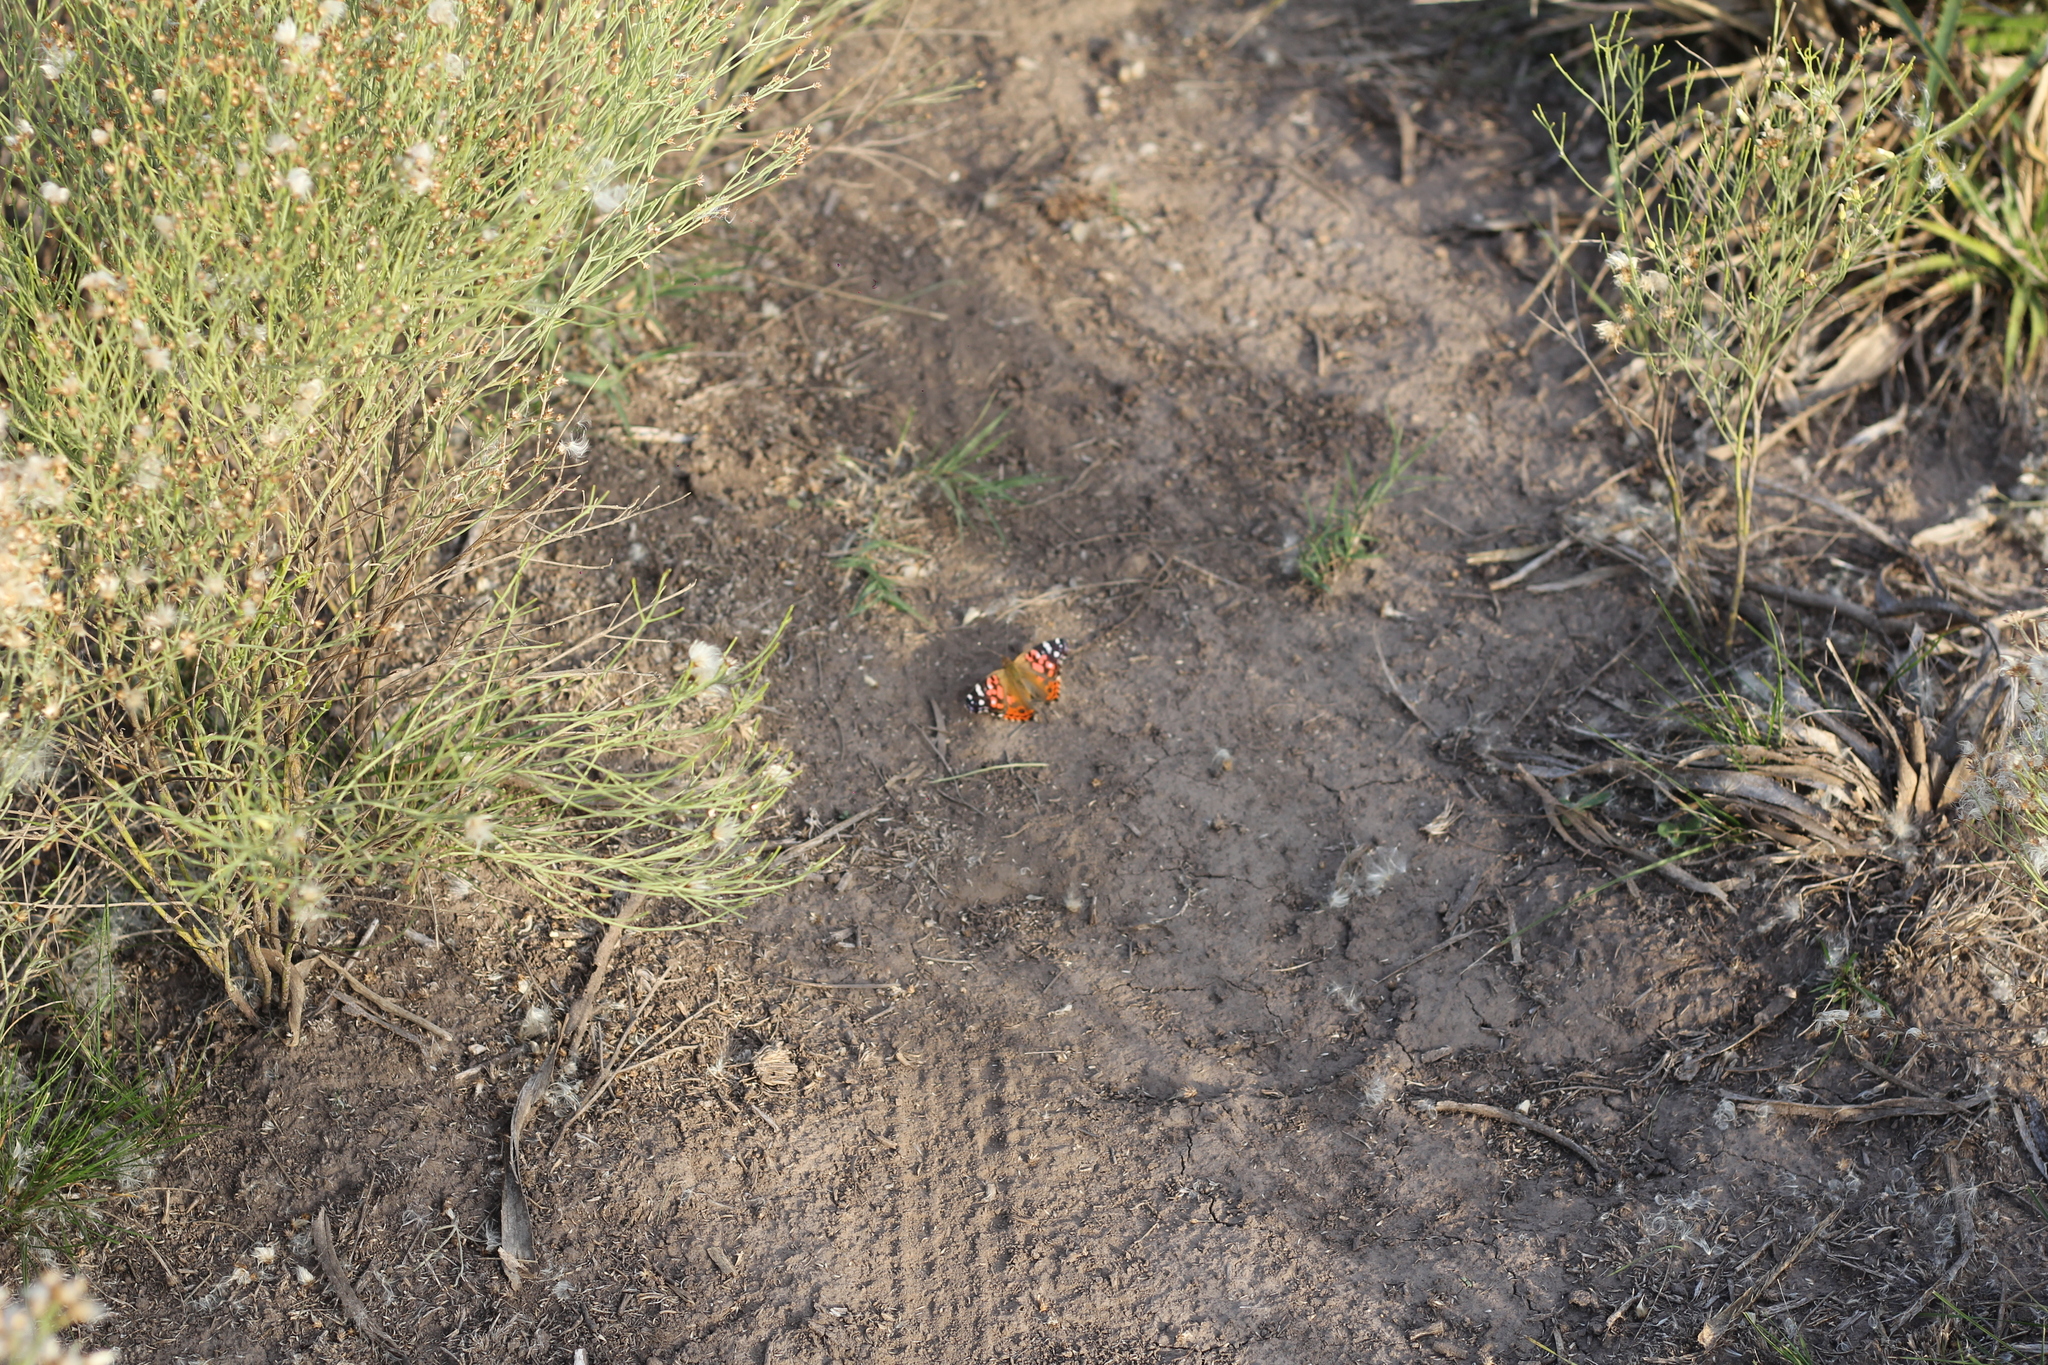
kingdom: Animalia
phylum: Arthropoda
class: Insecta
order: Lepidoptera
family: Nymphalidae
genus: Vanessa
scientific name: Vanessa braziliensis
